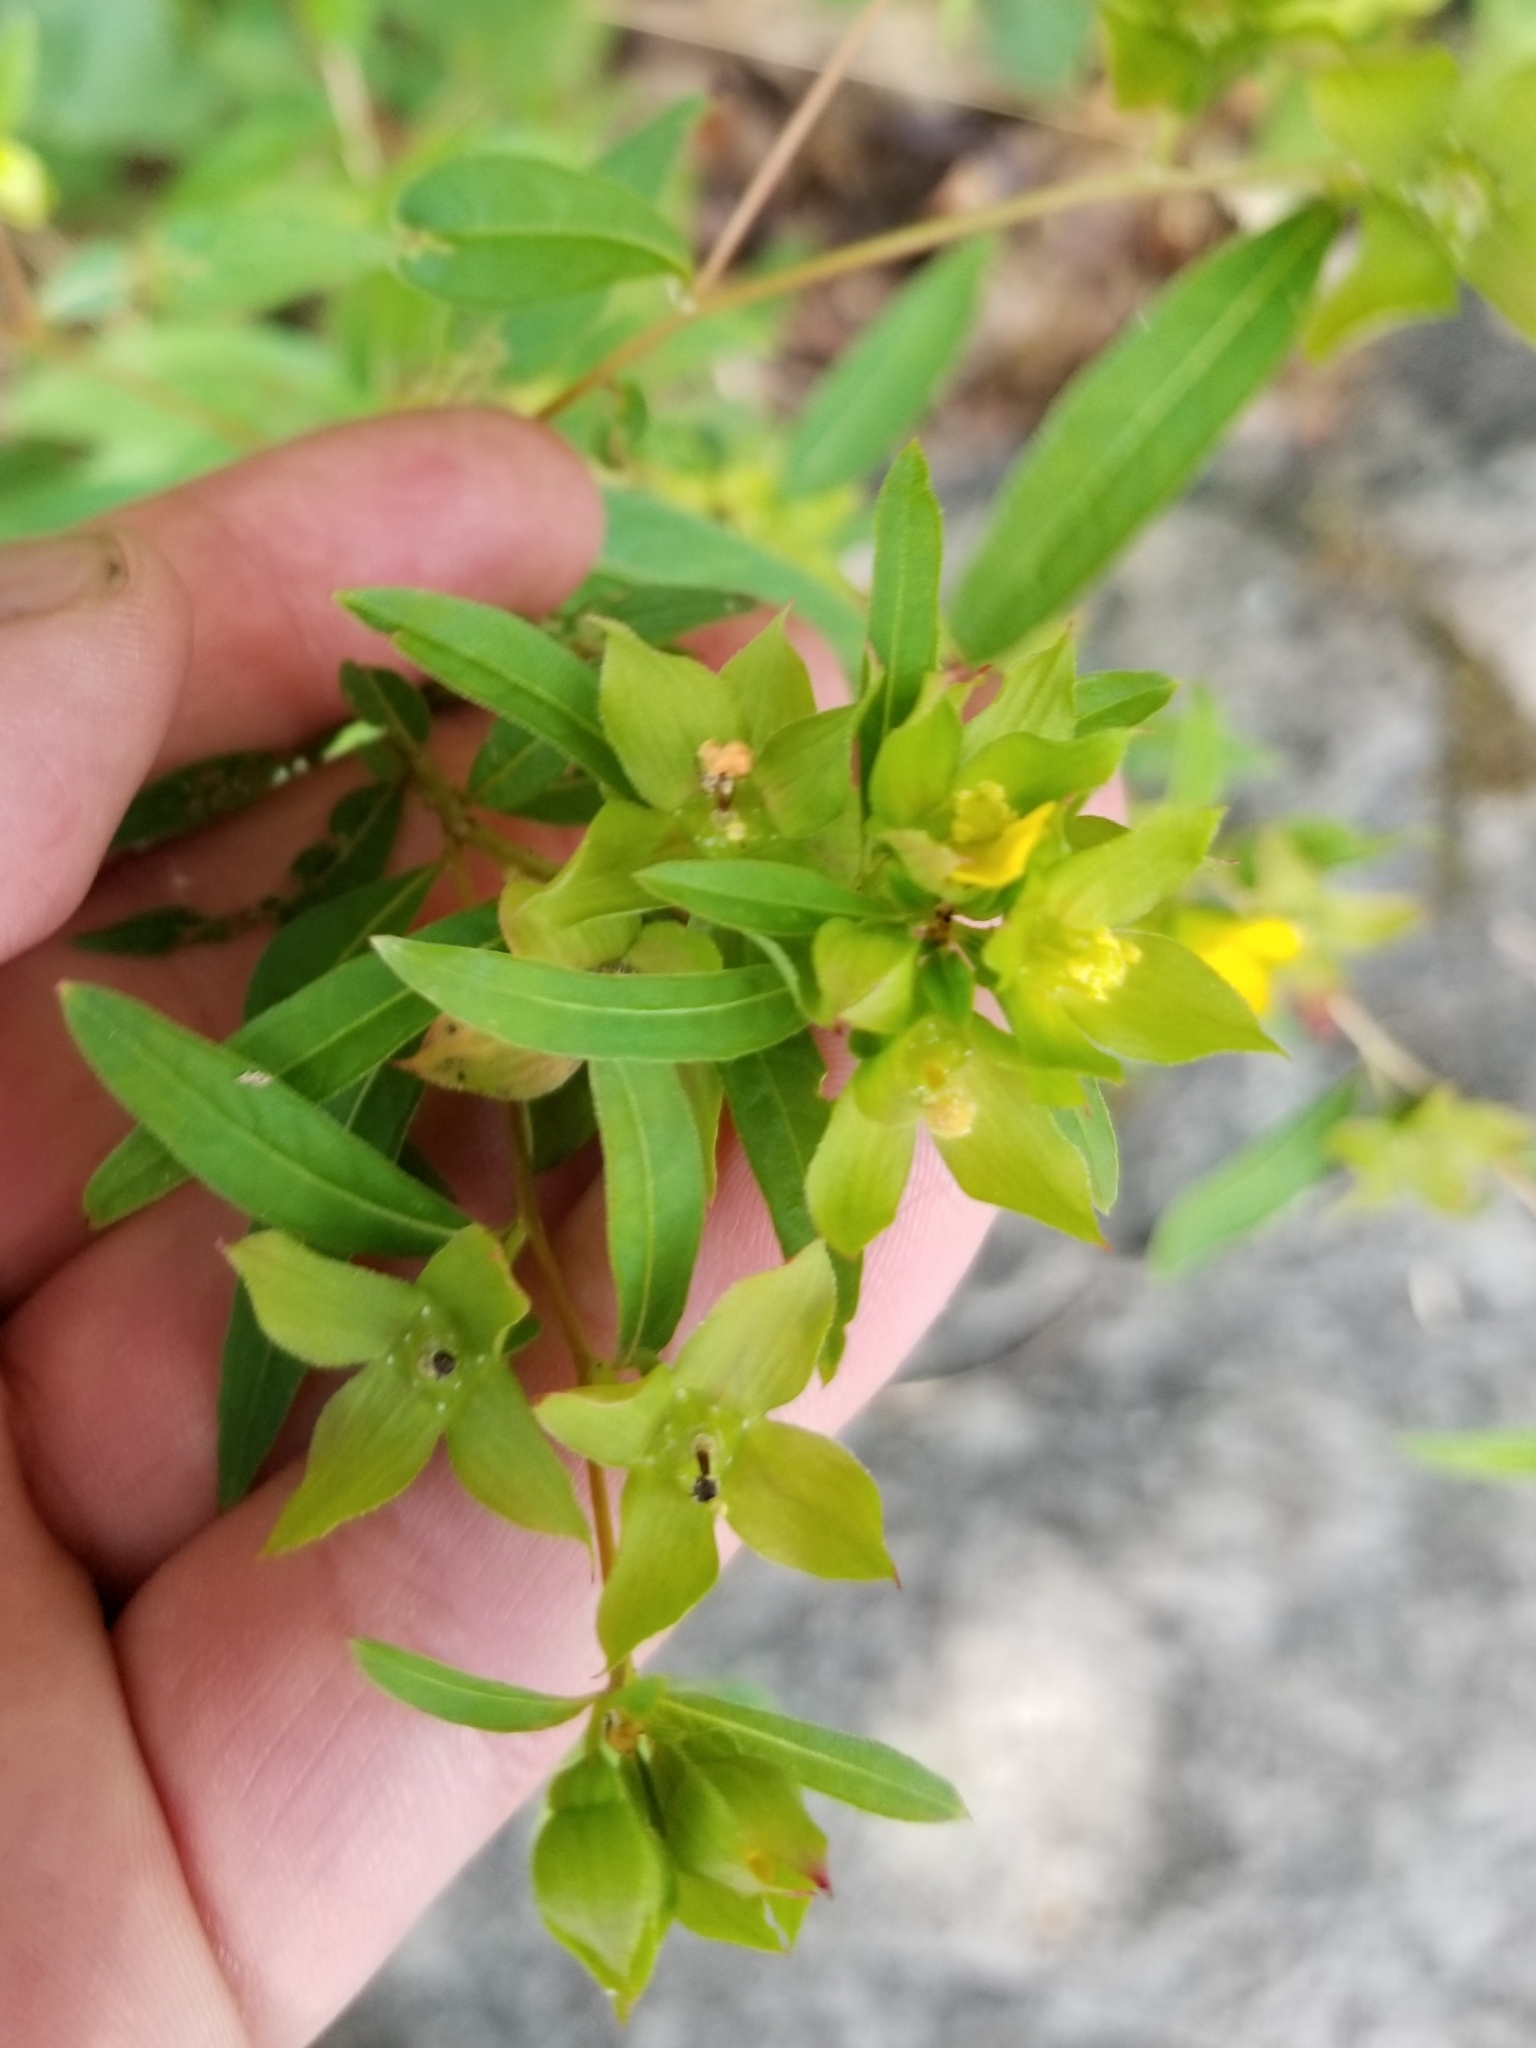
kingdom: Plantae
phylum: Tracheophyta
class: Magnoliopsida
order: Myrtales
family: Onagraceae
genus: Ludwigia
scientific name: Ludwigia alternifolia
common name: Rattlebox
